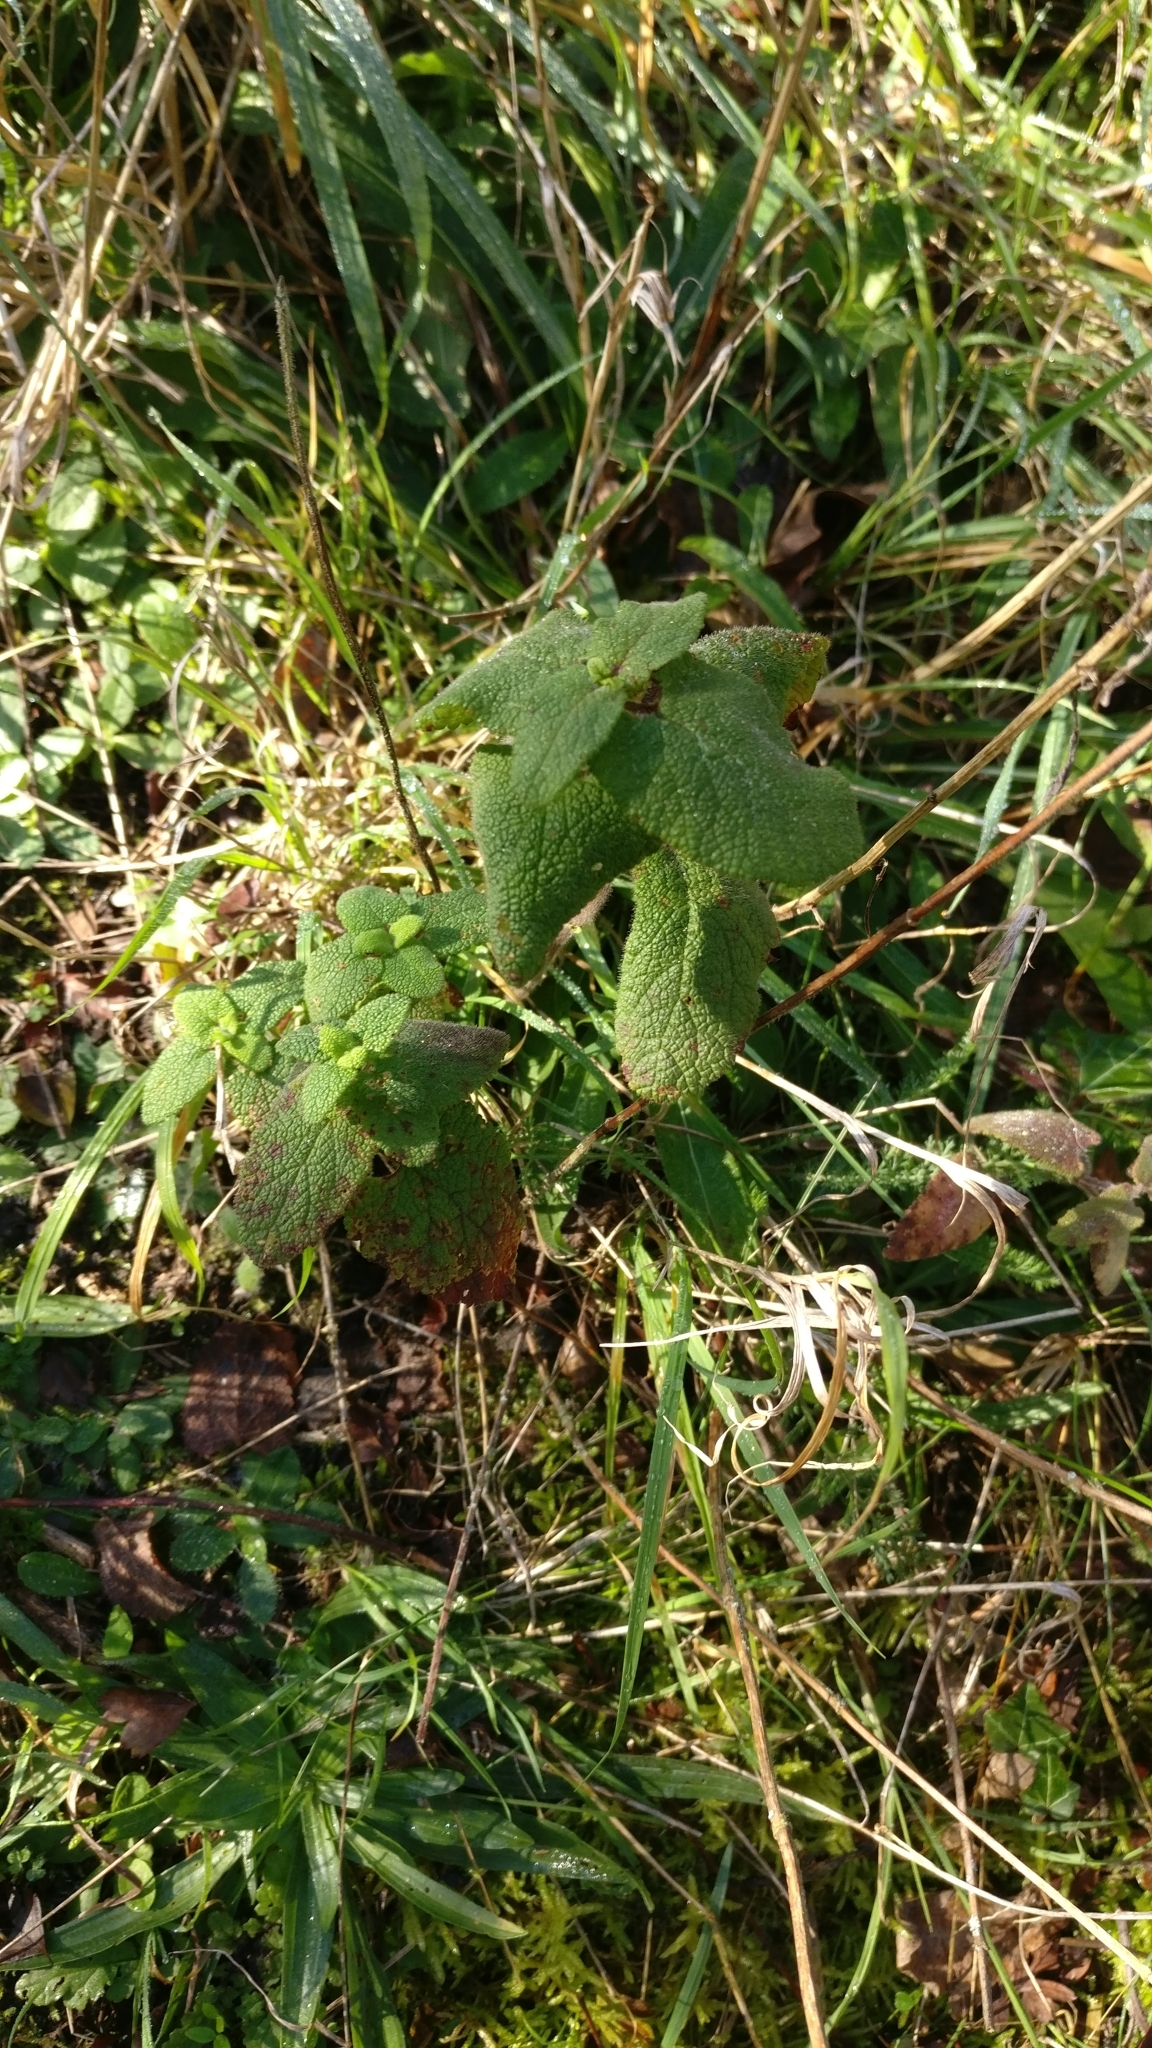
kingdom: Plantae
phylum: Tracheophyta
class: Magnoliopsida
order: Lamiales
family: Lamiaceae
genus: Teucrium
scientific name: Teucrium scorodonia
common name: Woodland germander
